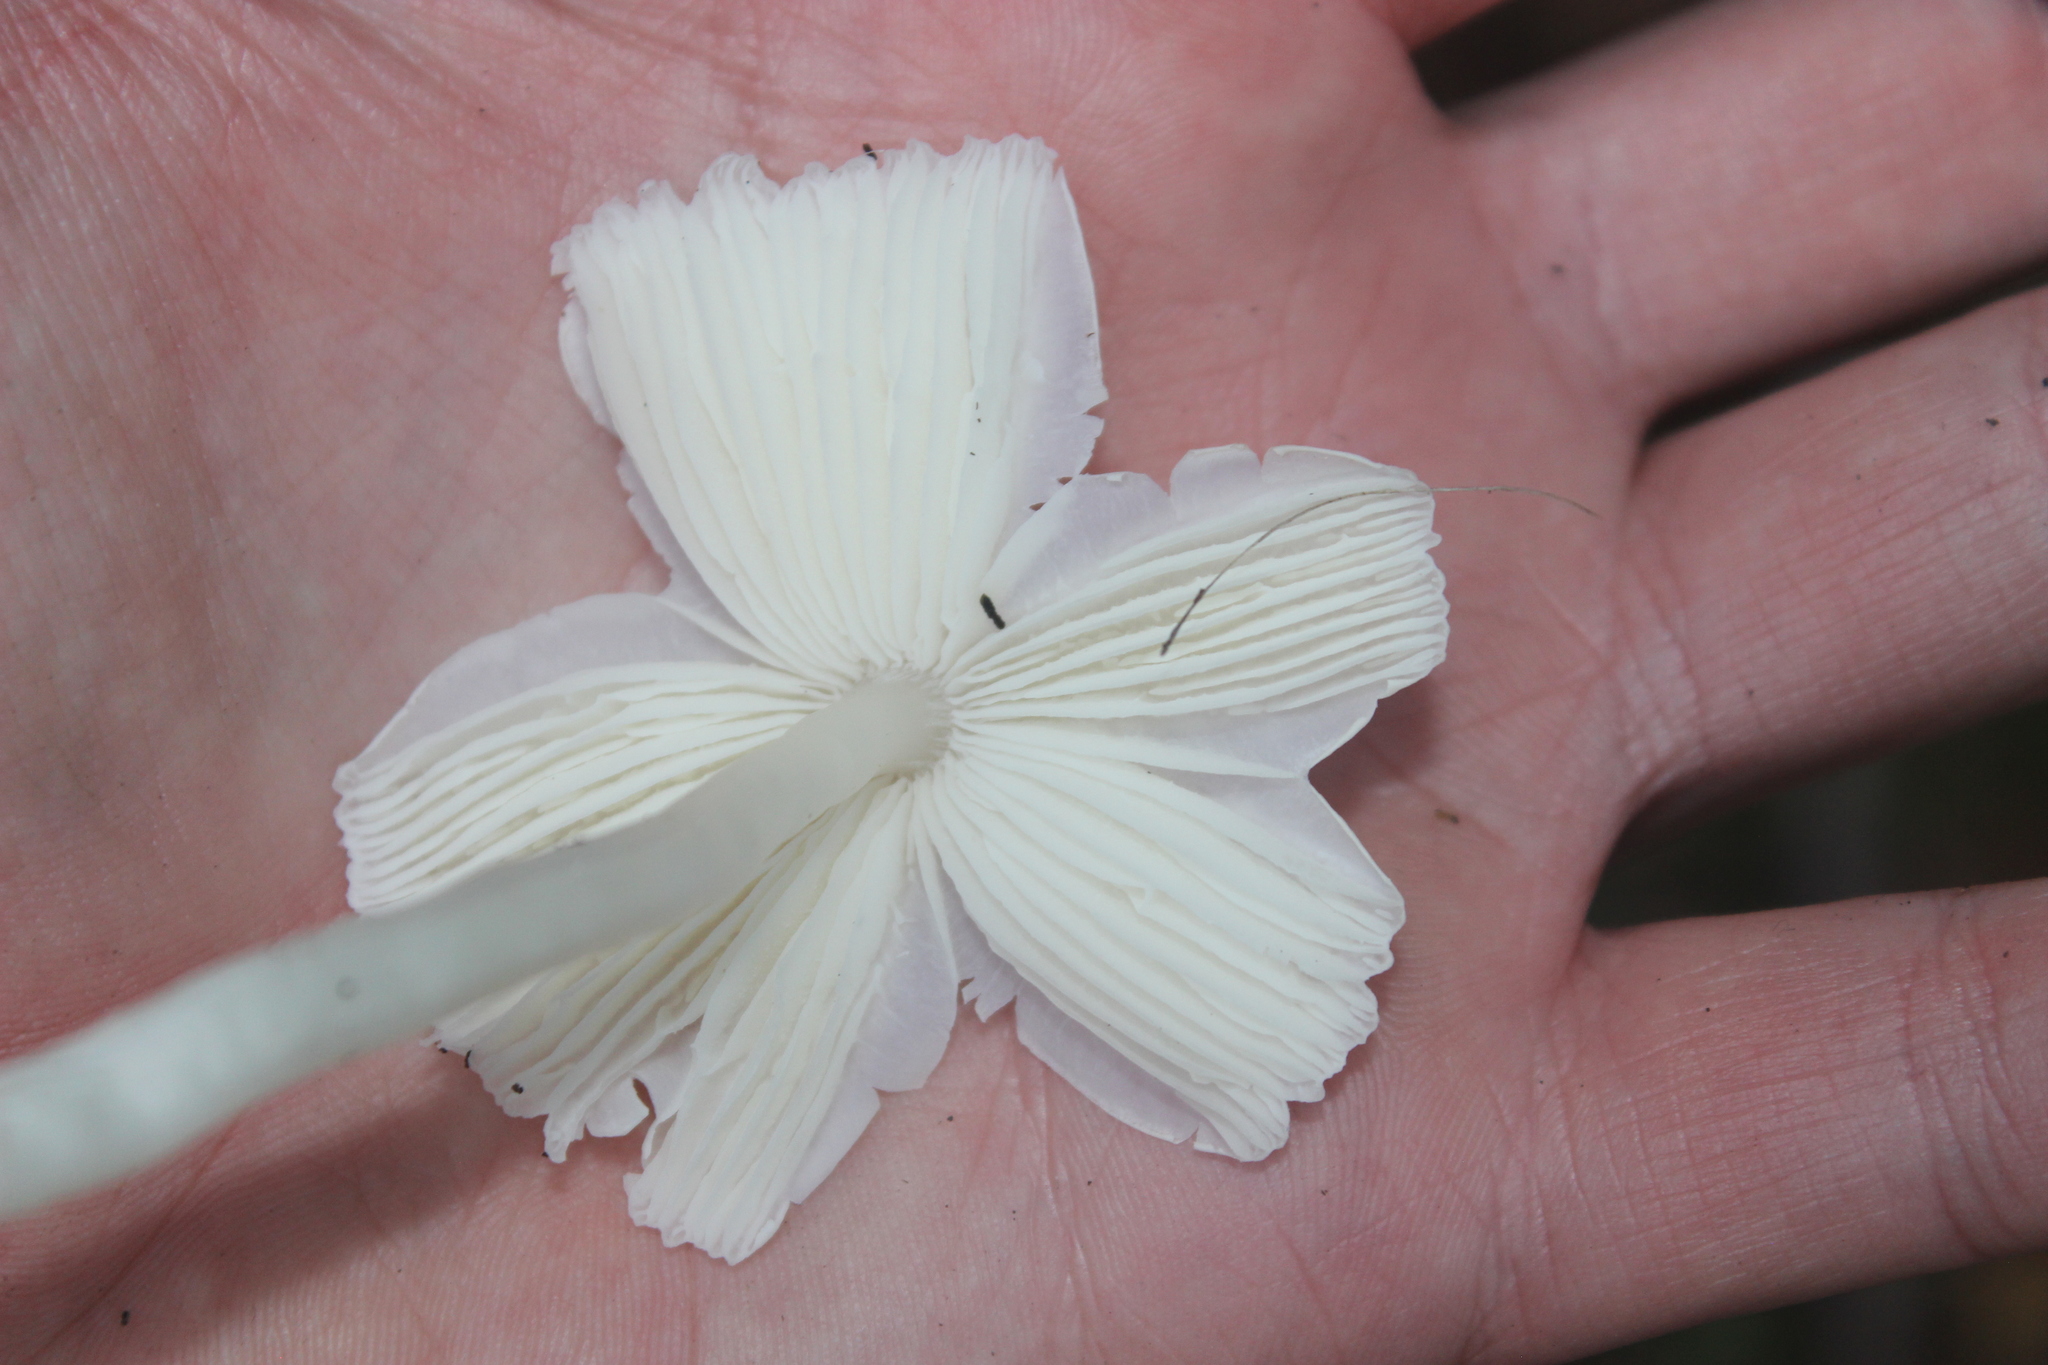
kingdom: Fungi
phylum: Basidiomycota
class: Agaricomycetes
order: Agaricales
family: Hygrophoraceae
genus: Humidicutis
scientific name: Humidicutis mavis
